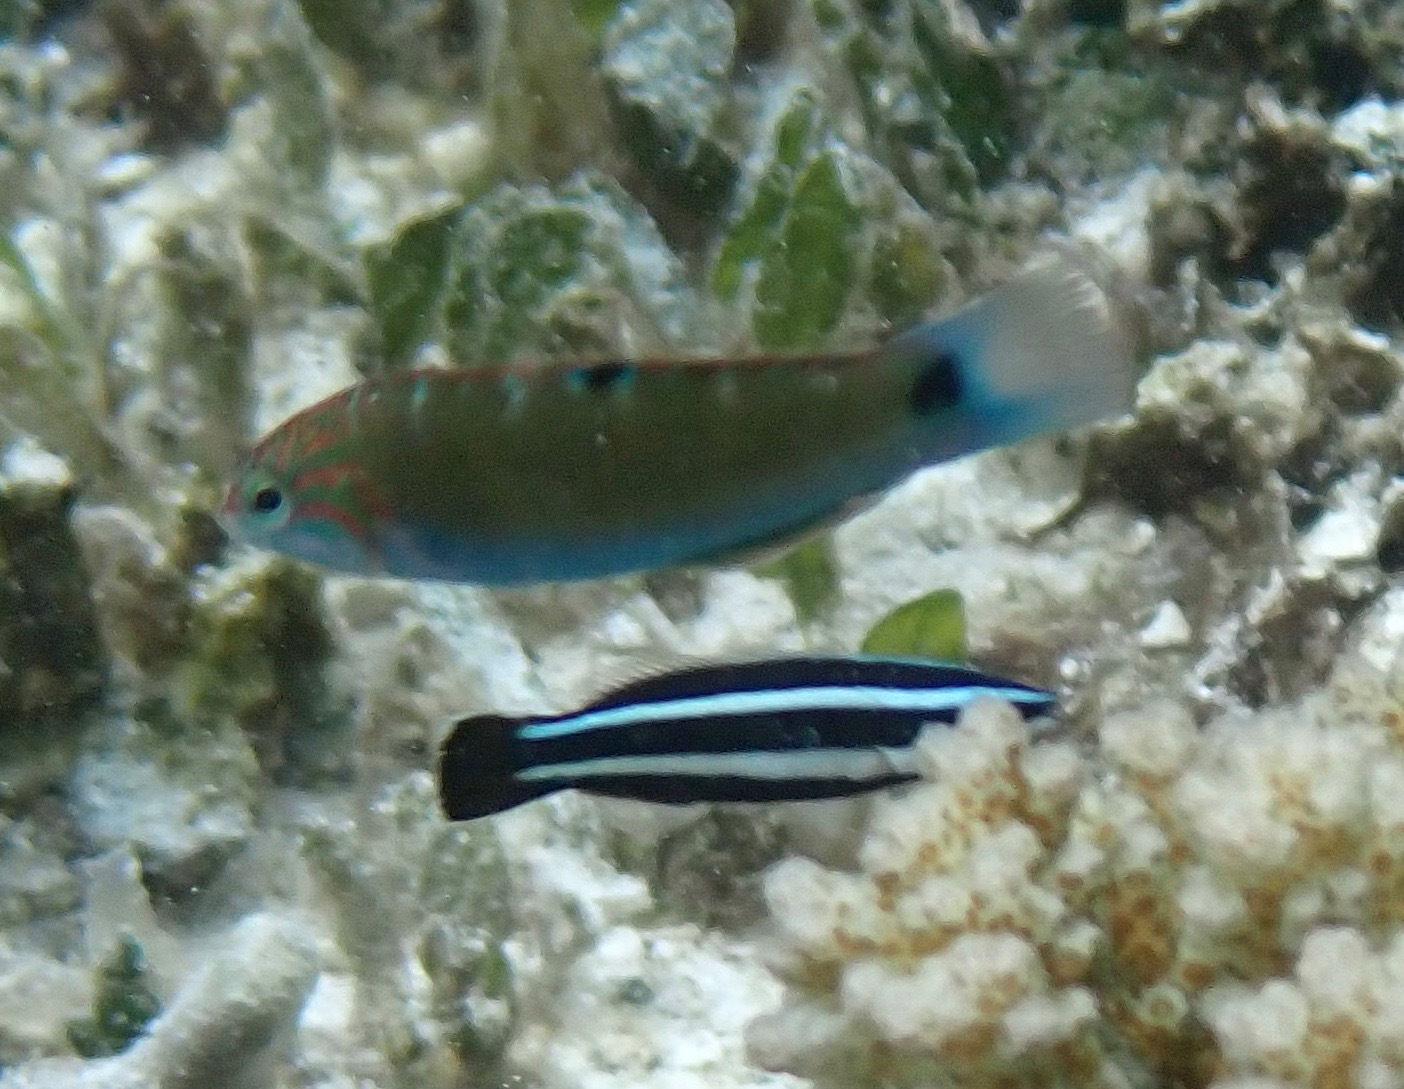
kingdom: Animalia
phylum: Chordata
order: Perciformes
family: Labridae
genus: Thalassoma
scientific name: Thalassoma lunare
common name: Blue wrasse
